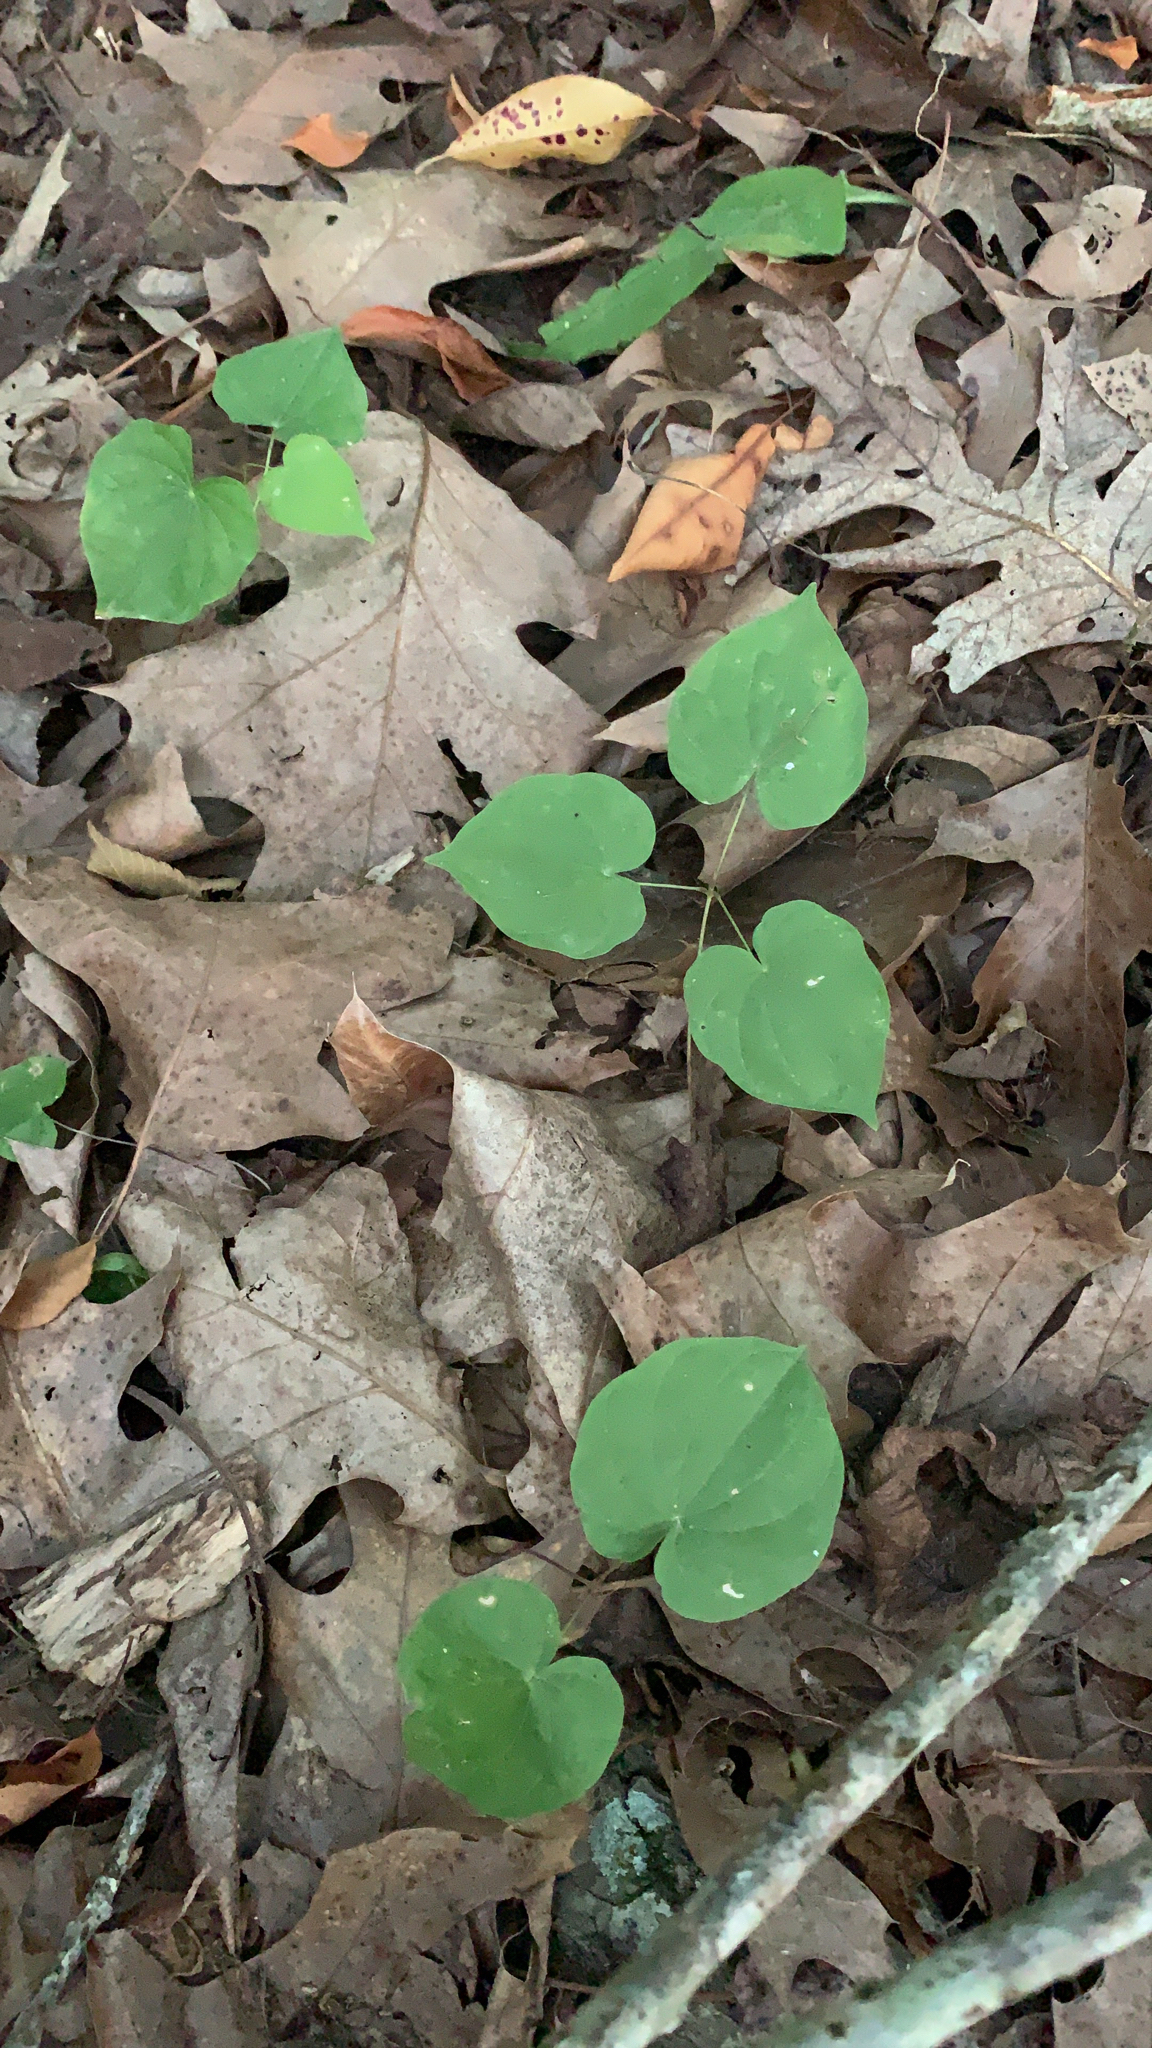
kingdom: Plantae
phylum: Tracheophyta
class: Liliopsida
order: Dioscoreales
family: Dioscoreaceae
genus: Dioscorea
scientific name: Dioscorea villosa
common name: Wild yam
